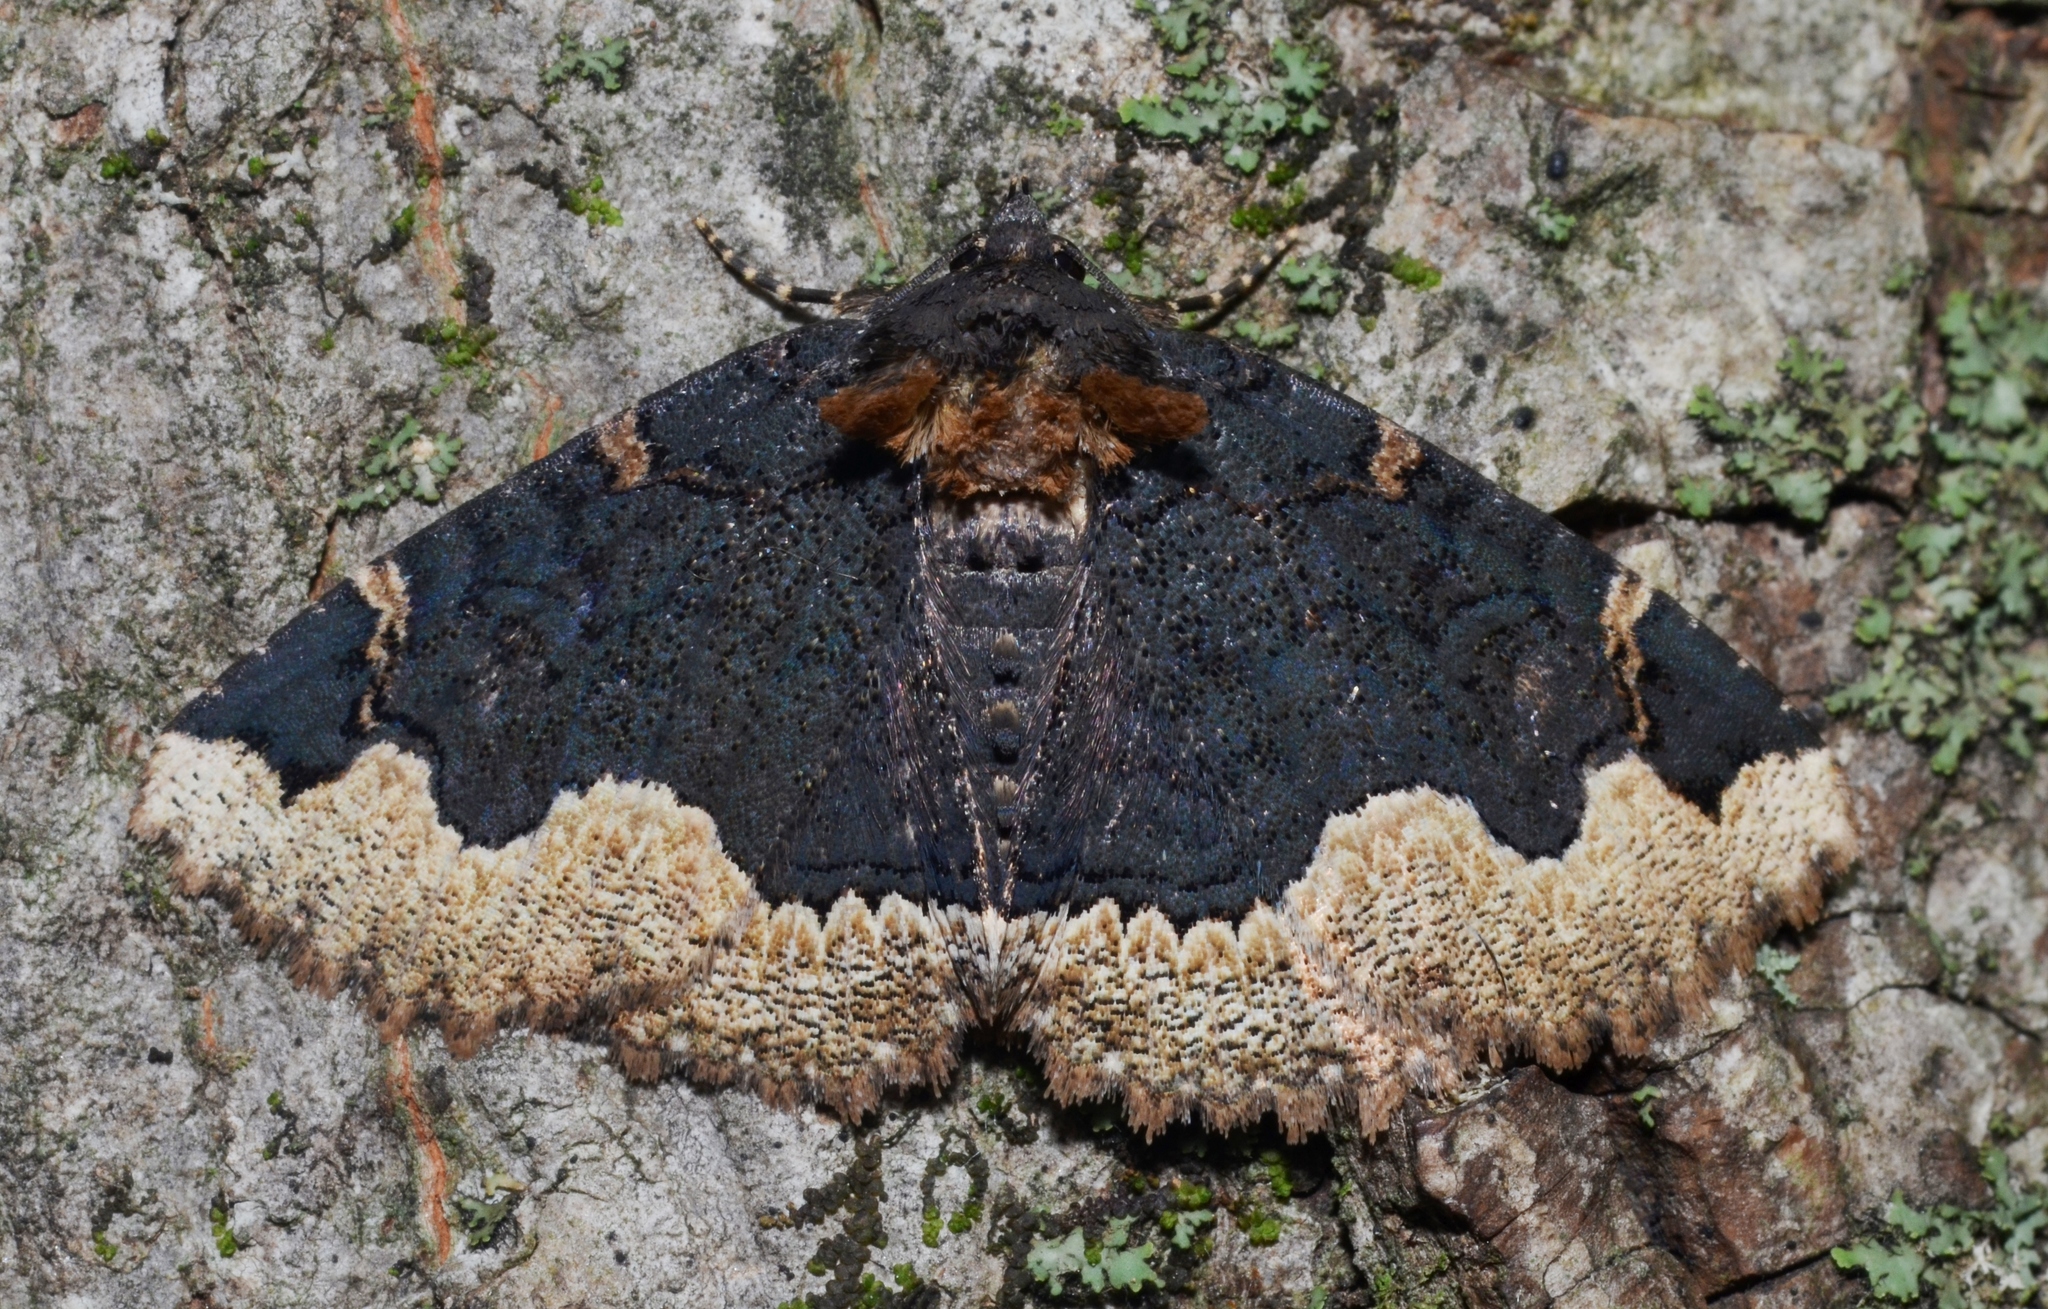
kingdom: Animalia
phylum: Arthropoda
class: Insecta
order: Lepidoptera
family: Erebidae
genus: Zale
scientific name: Zale horrida
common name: Horrid zale moth
